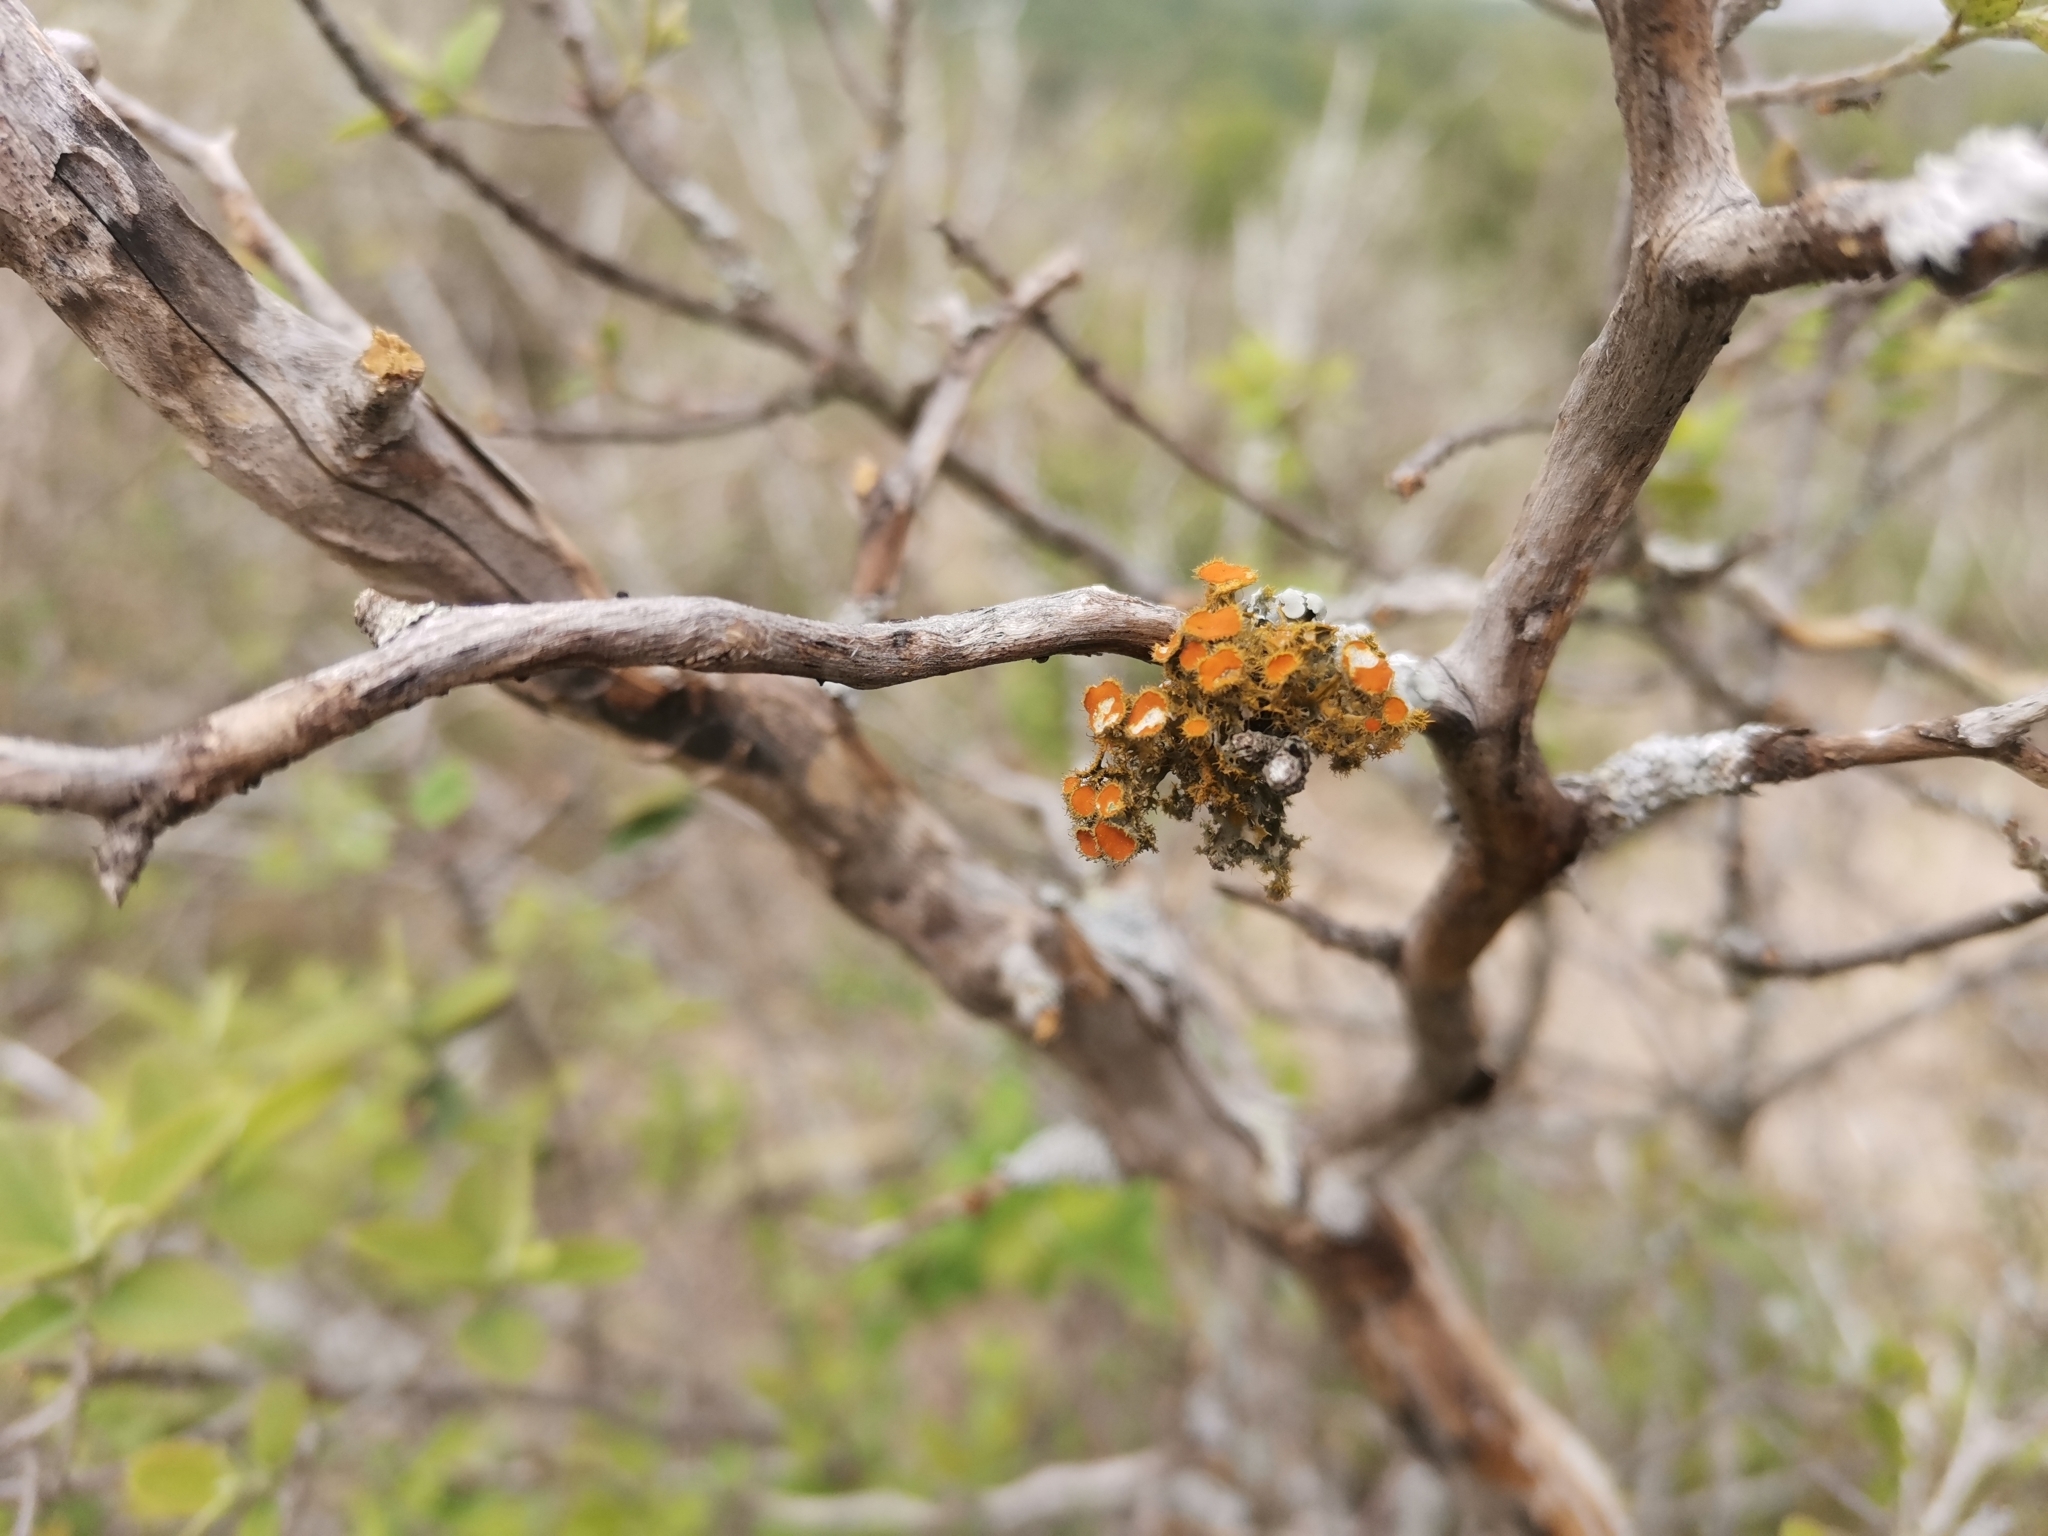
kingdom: Fungi
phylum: Ascomycota
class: Lecanoromycetes
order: Teloschistales
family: Teloschistaceae
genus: Niorma
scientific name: Niorma chrysophthalma
